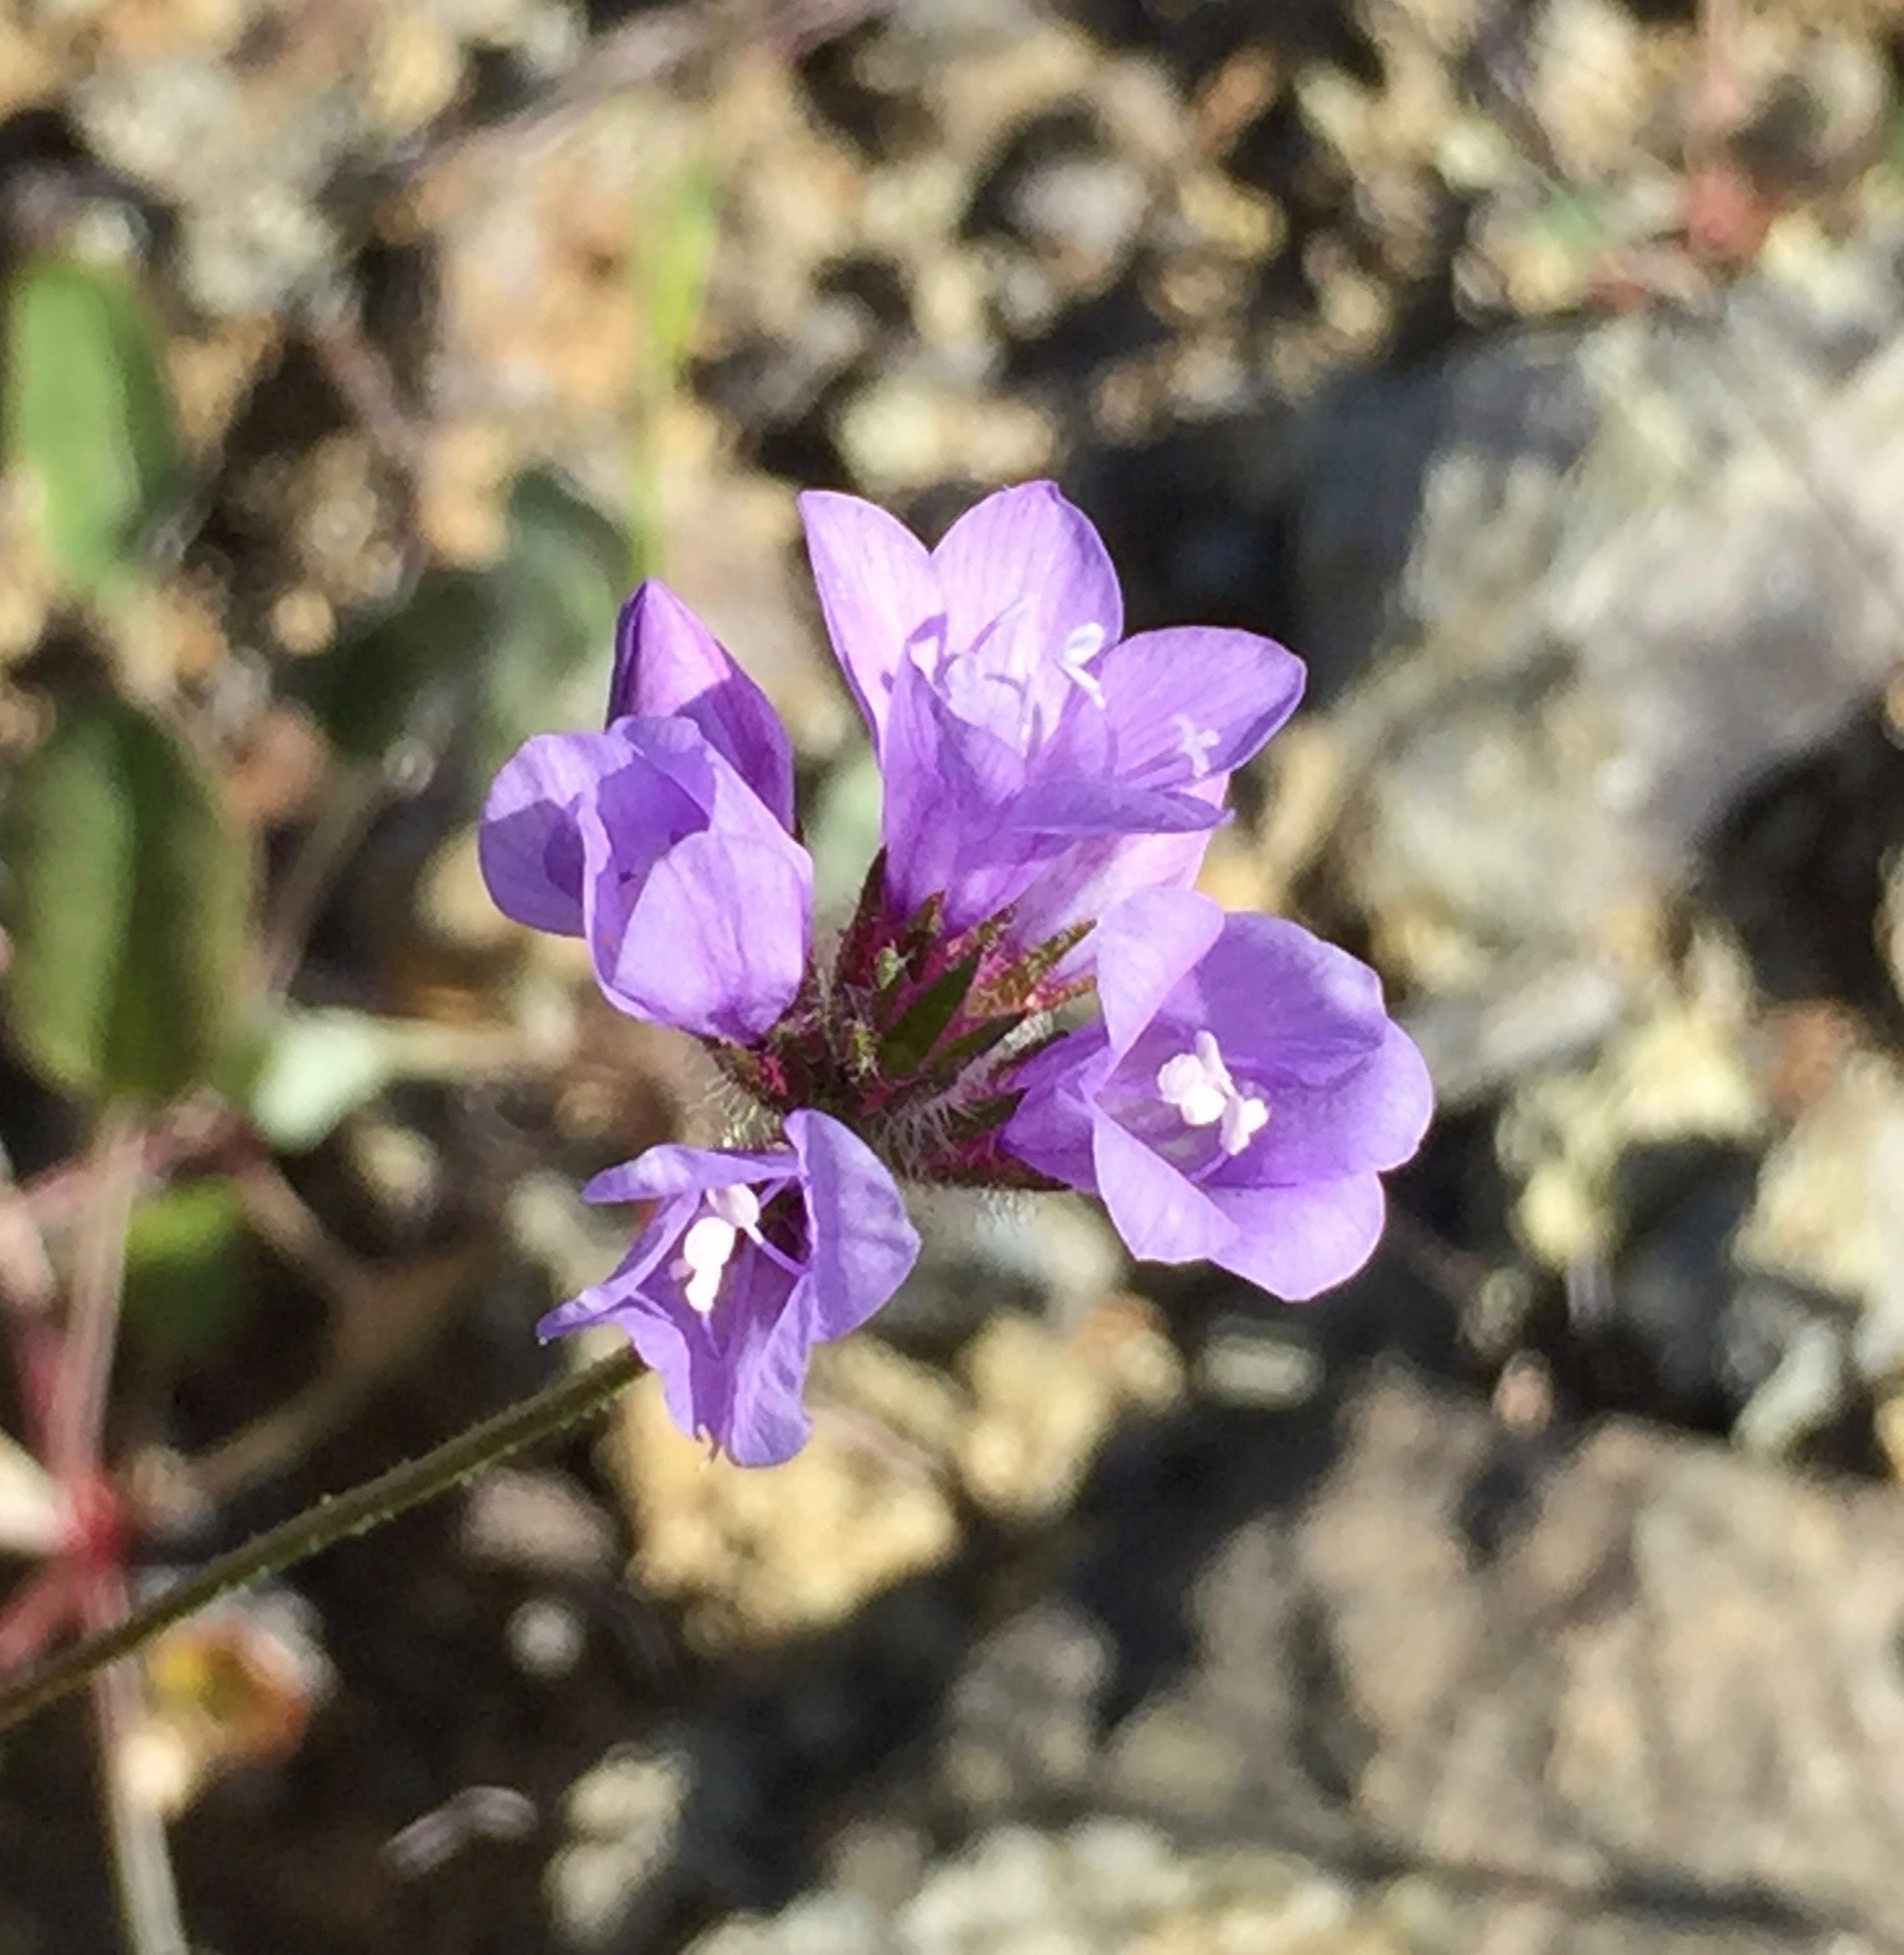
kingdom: Plantae
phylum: Tracheophyta
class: Liliopsida
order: Asparagales
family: Asparagaceae
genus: Dipterostemon
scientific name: Dipterostemon capitatus
